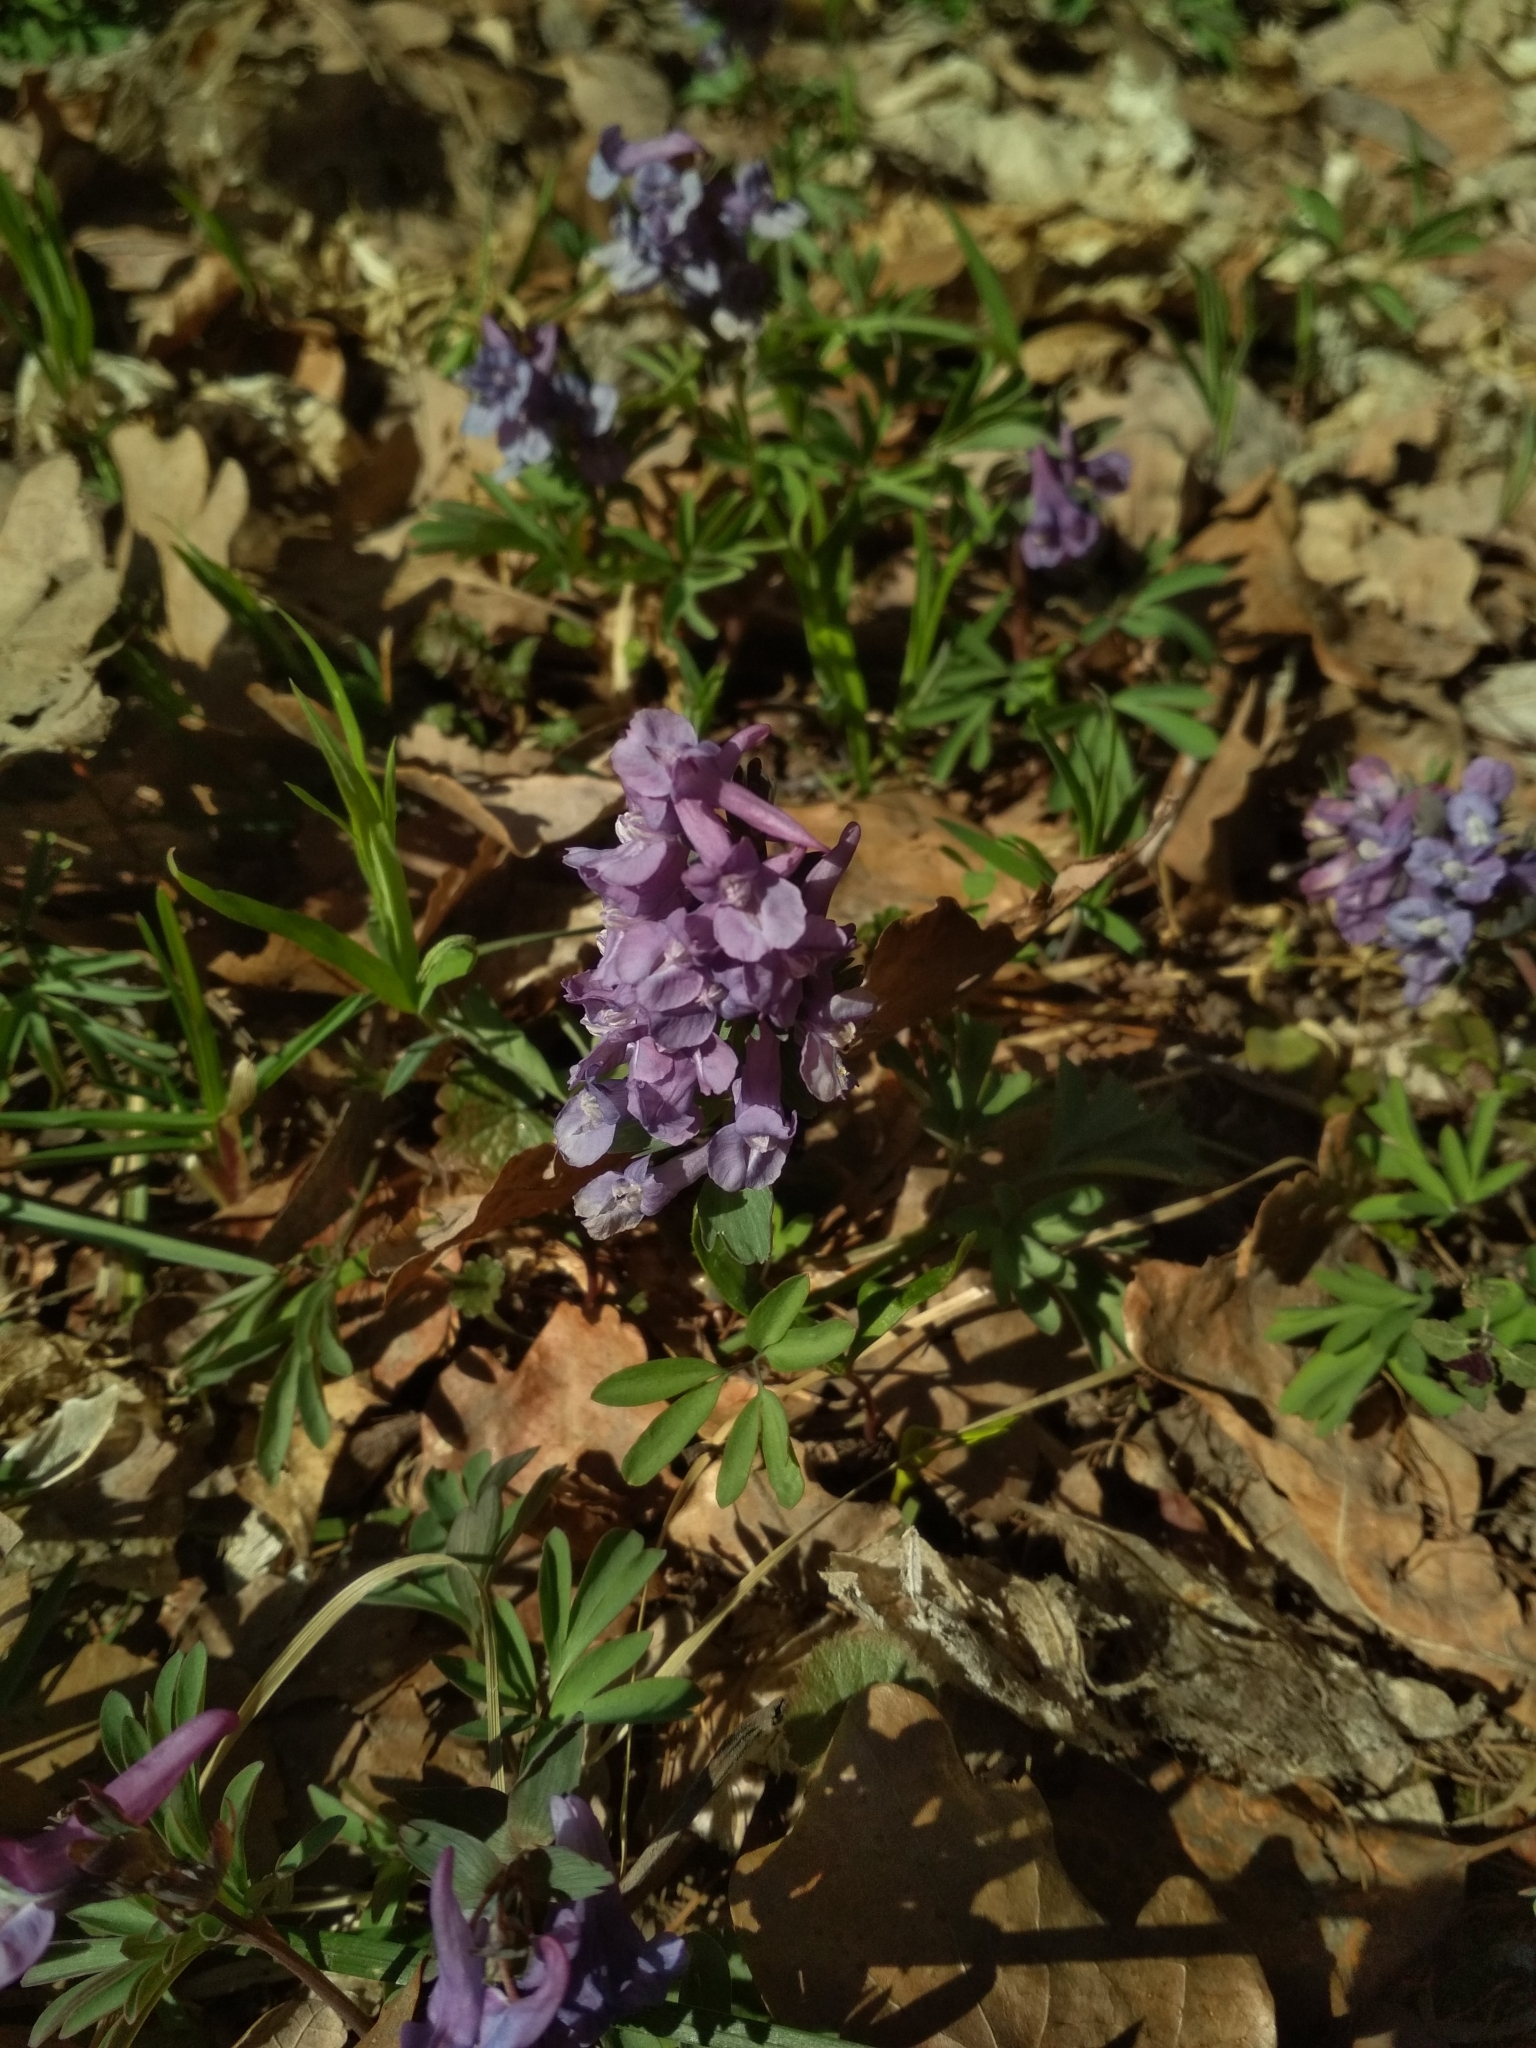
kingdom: Plantae
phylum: Tracheophyta
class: Magnoliopsida
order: Ranunculales
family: Papaveraceae
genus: Corydalis
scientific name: Corydalis solida
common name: Bird-in-a-bush
